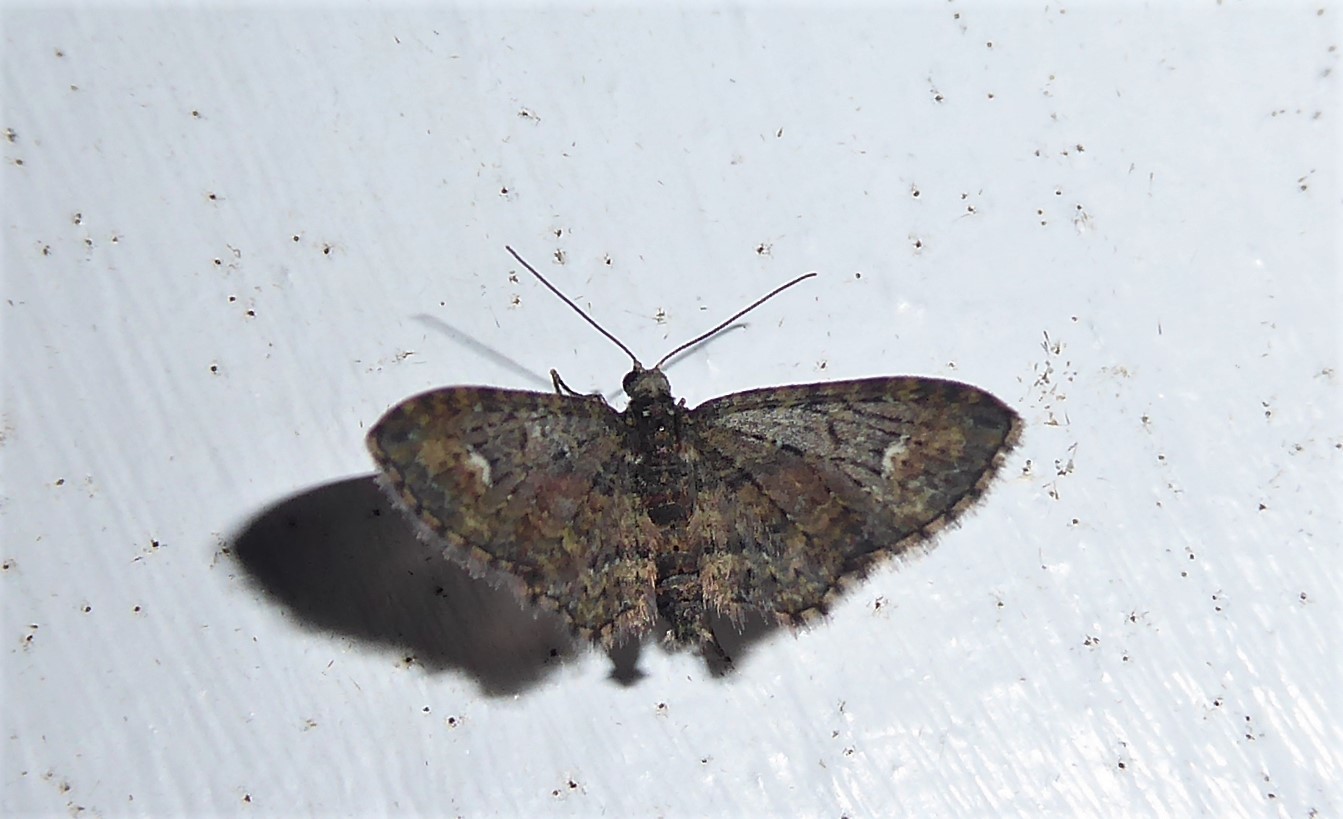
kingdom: Animalia
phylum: Arthropoda
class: Insecta
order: Lepidoptera
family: Geometridae
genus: Pasiphilodes
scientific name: Pasiphilodes testulata
